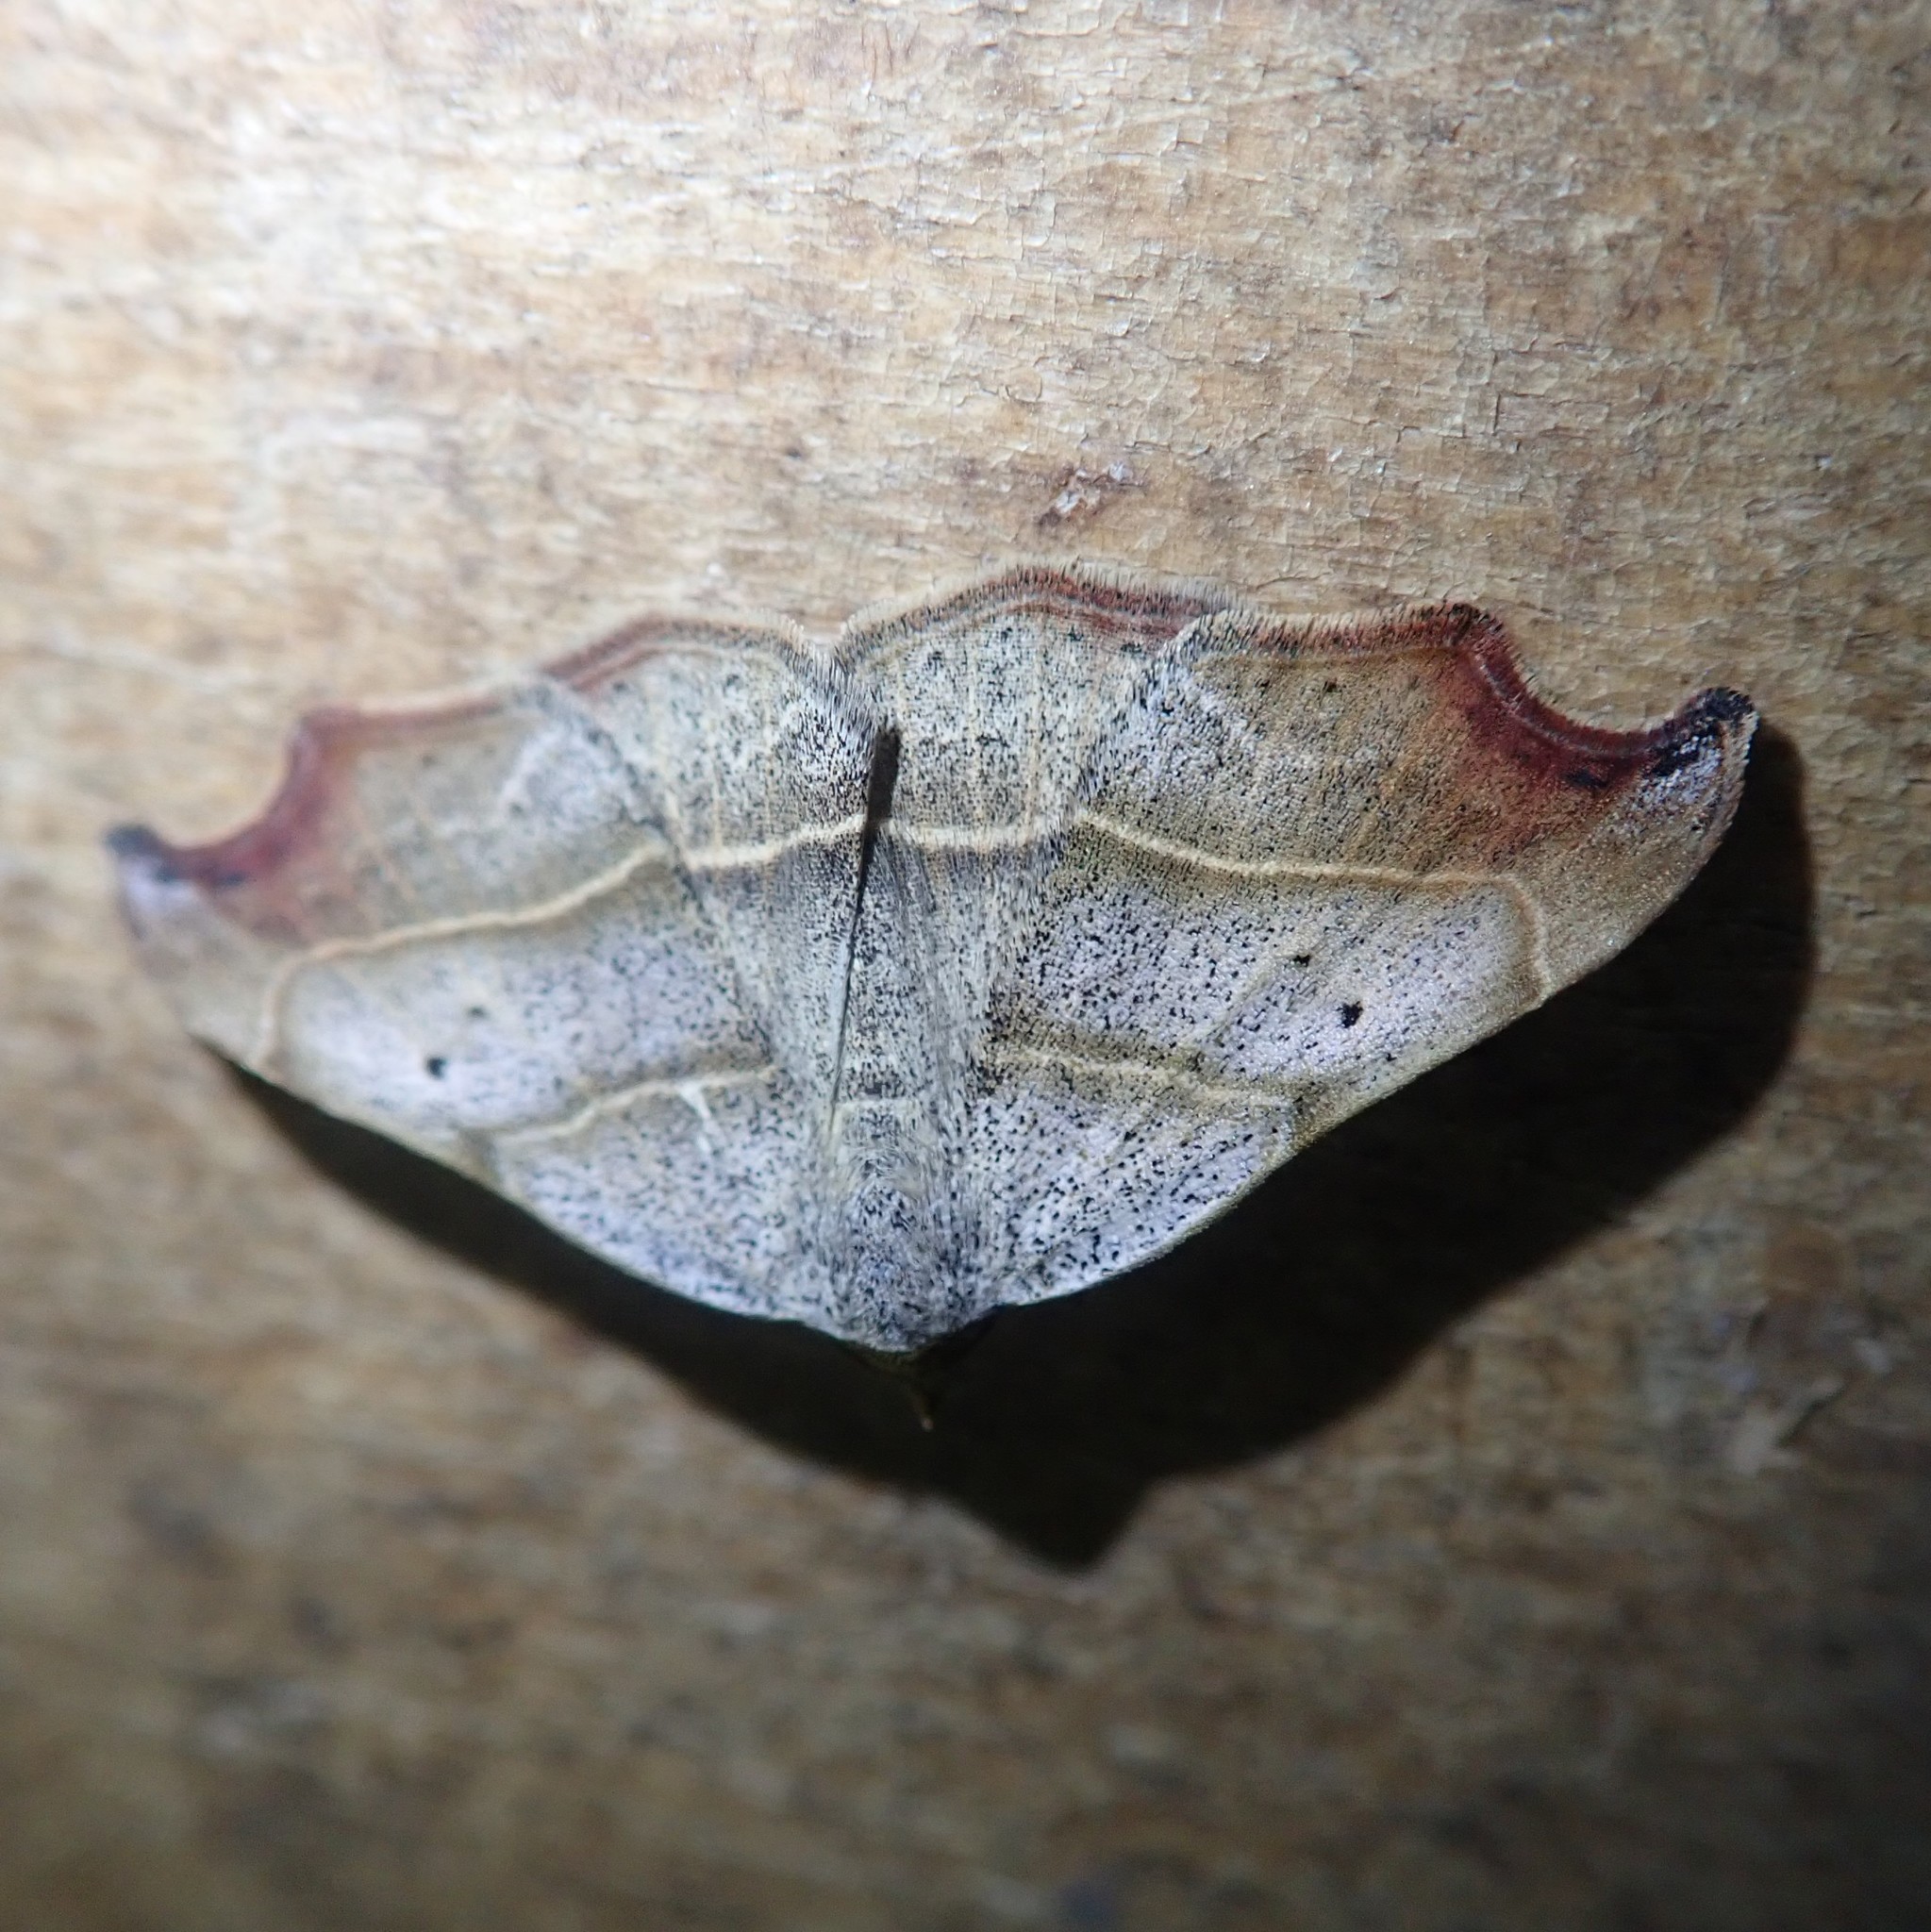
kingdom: Animalia
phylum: Arthropoda
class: Insecta
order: Lepidoptera
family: Erebidae
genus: Laspeyria
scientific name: Laspeyria flexula
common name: Beautiful hook-tip
